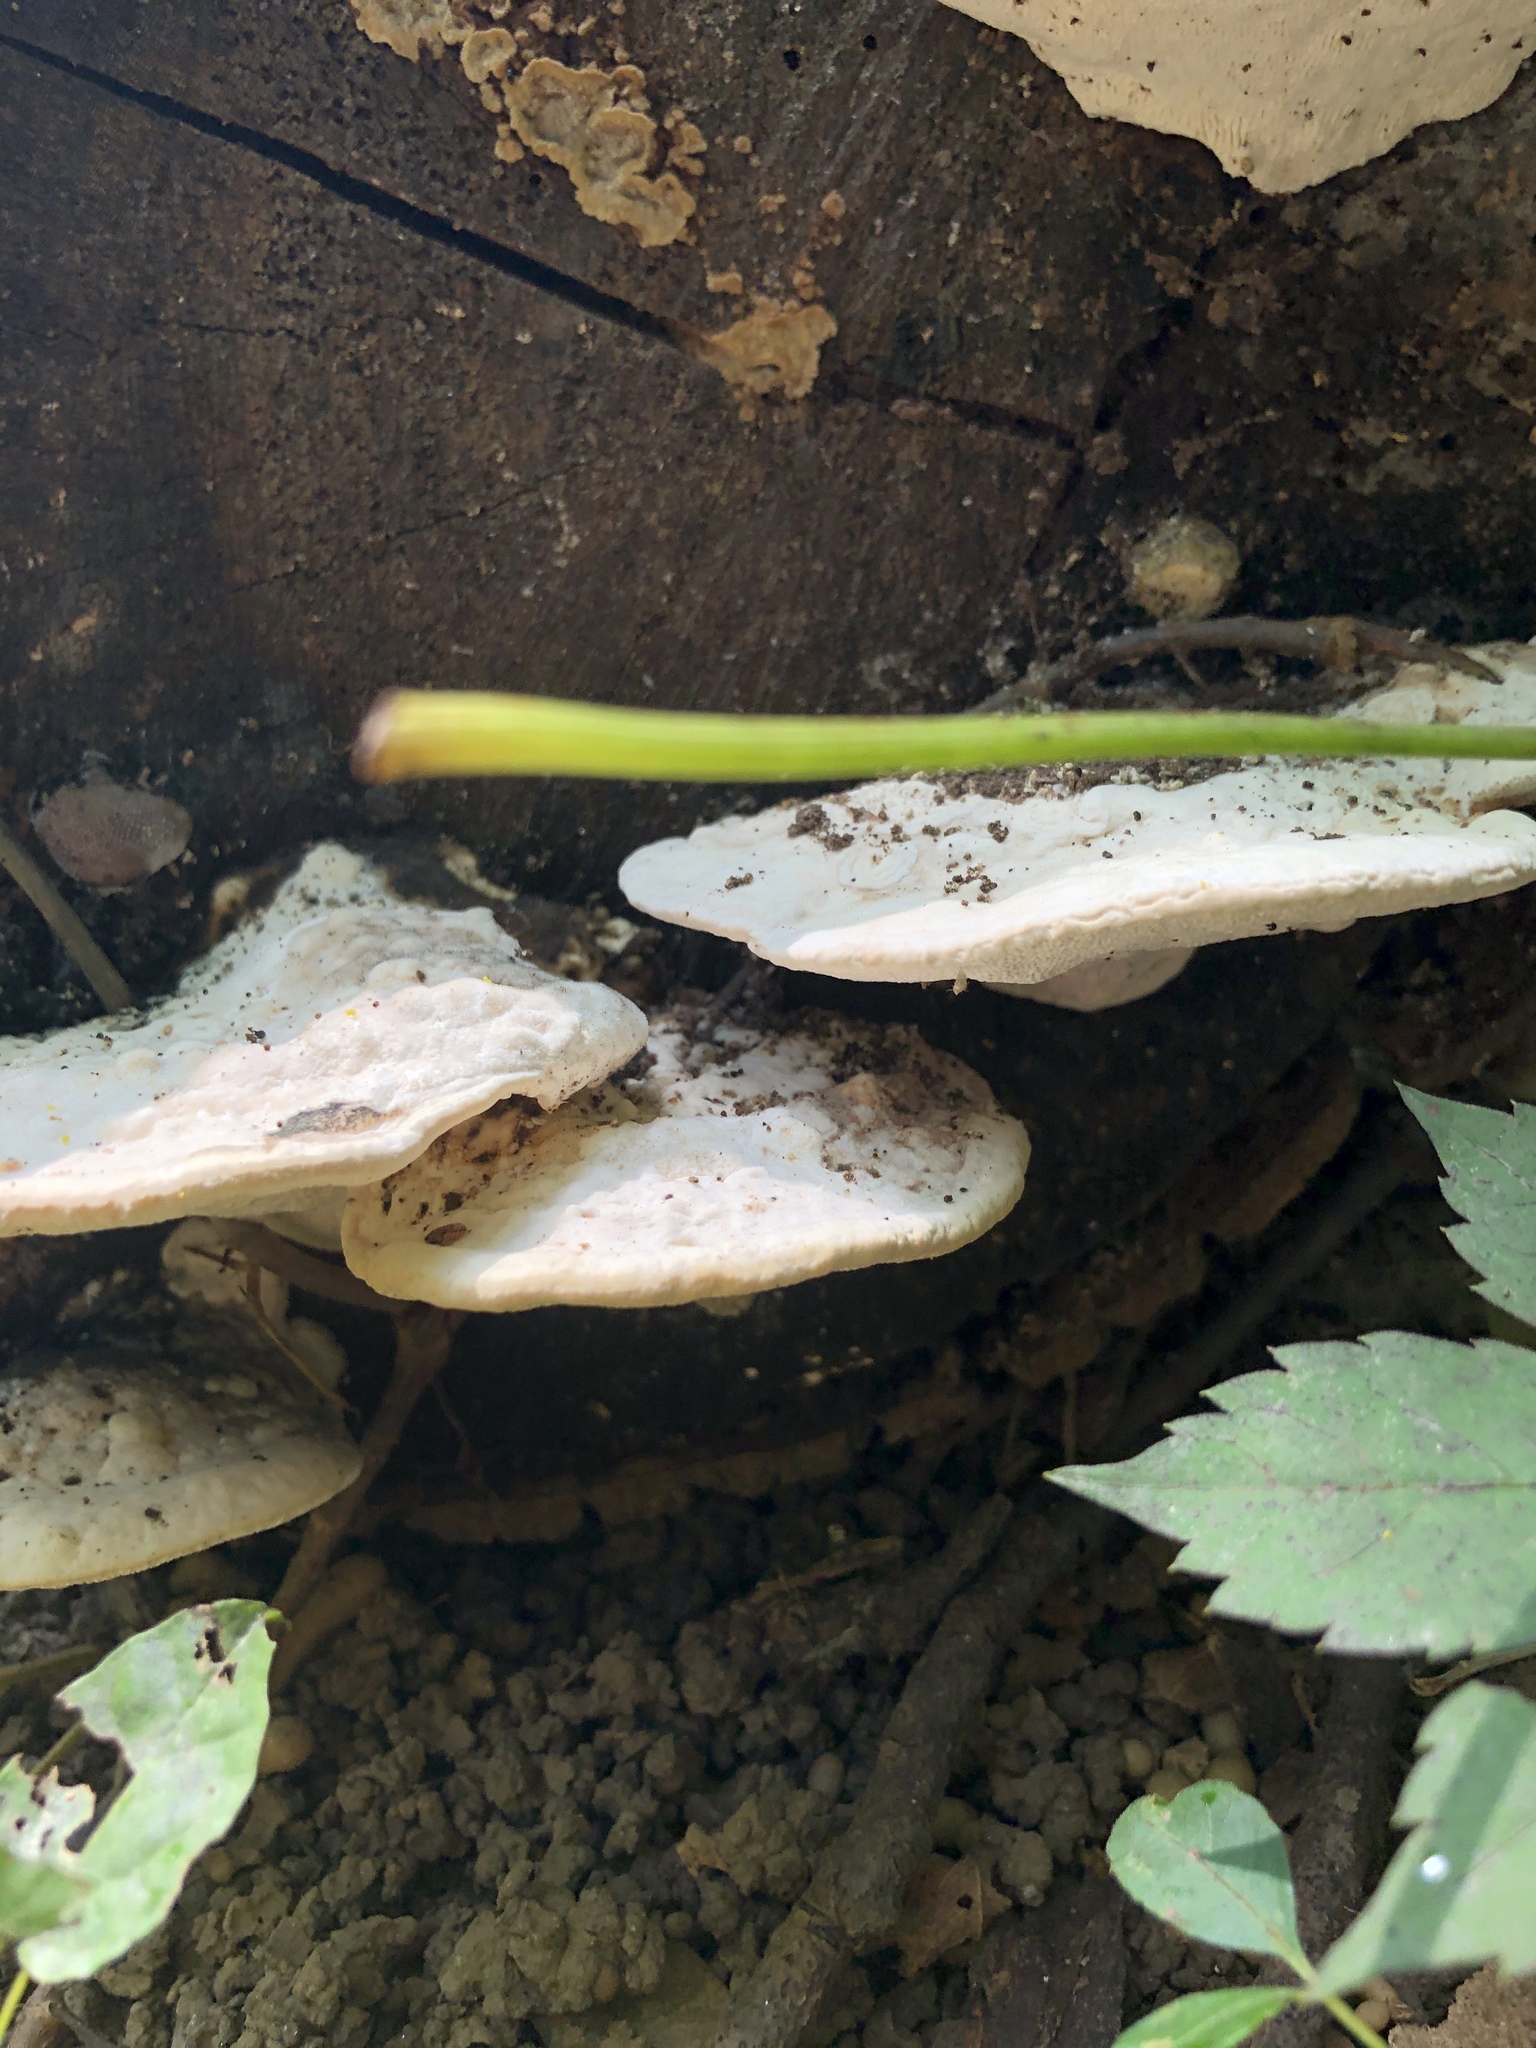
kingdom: Fungi
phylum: Basidiomycota
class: Agaricomycetes
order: Polyporales
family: Polyporaceae
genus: Trametes
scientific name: Trametes gibbosa
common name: Lumpy bracket
